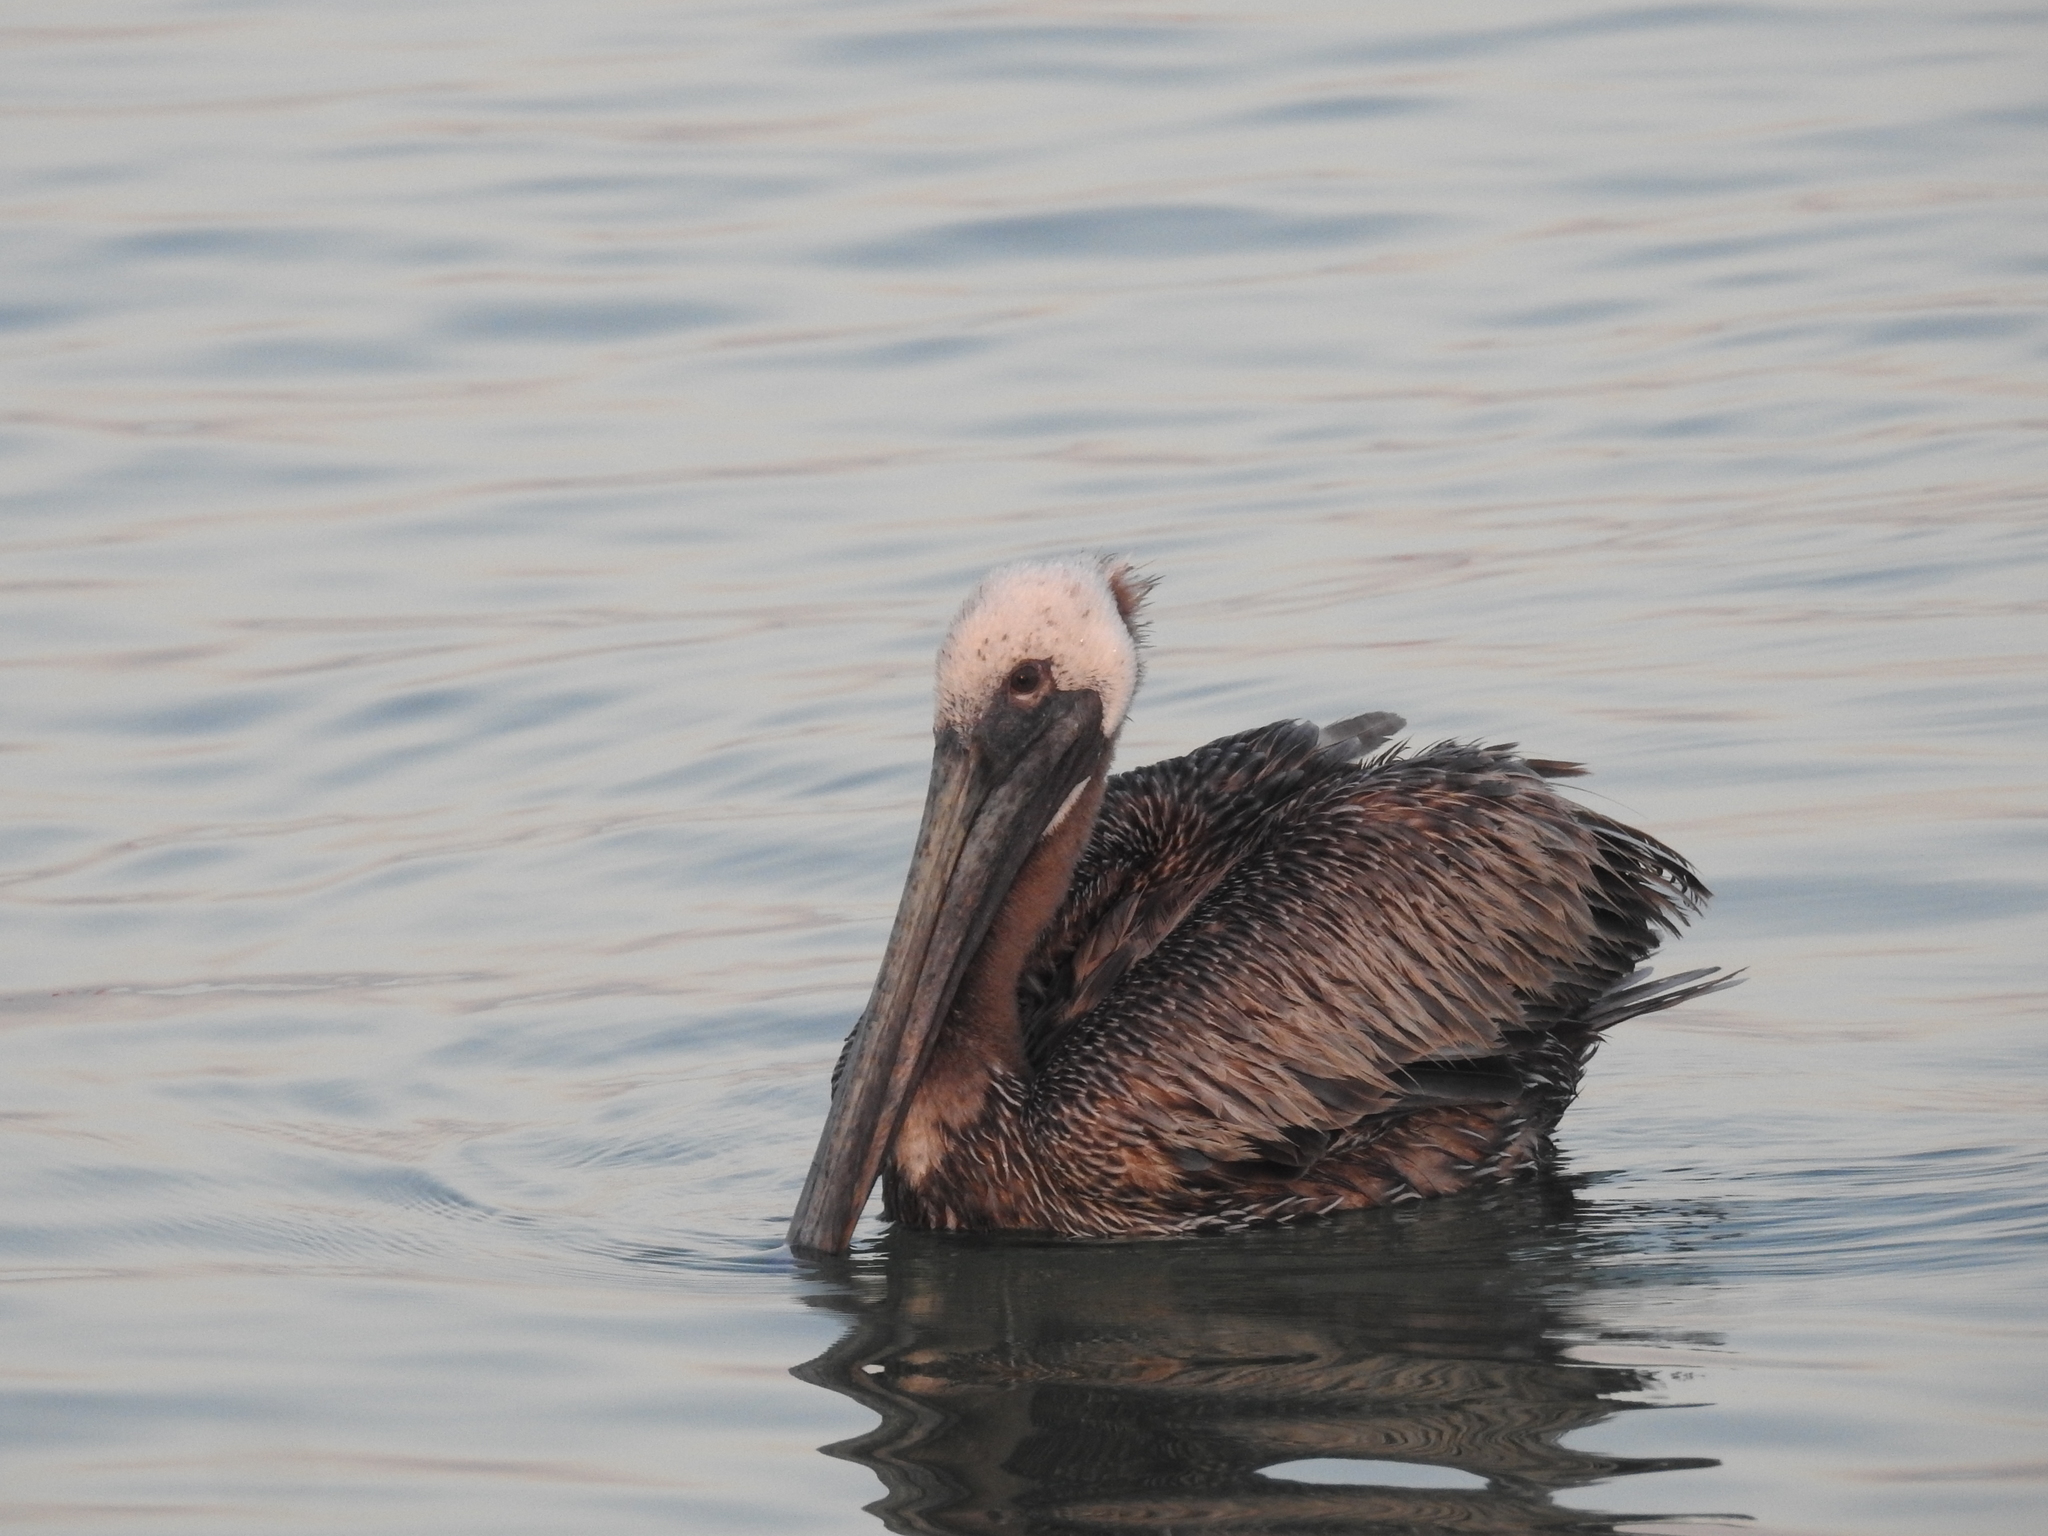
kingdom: Animalia
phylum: Chordata
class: Aves
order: Pelecaniformes
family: Pelecanidae
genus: Pelecanus
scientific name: Pelecanus occidentalis
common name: Brown pelican
